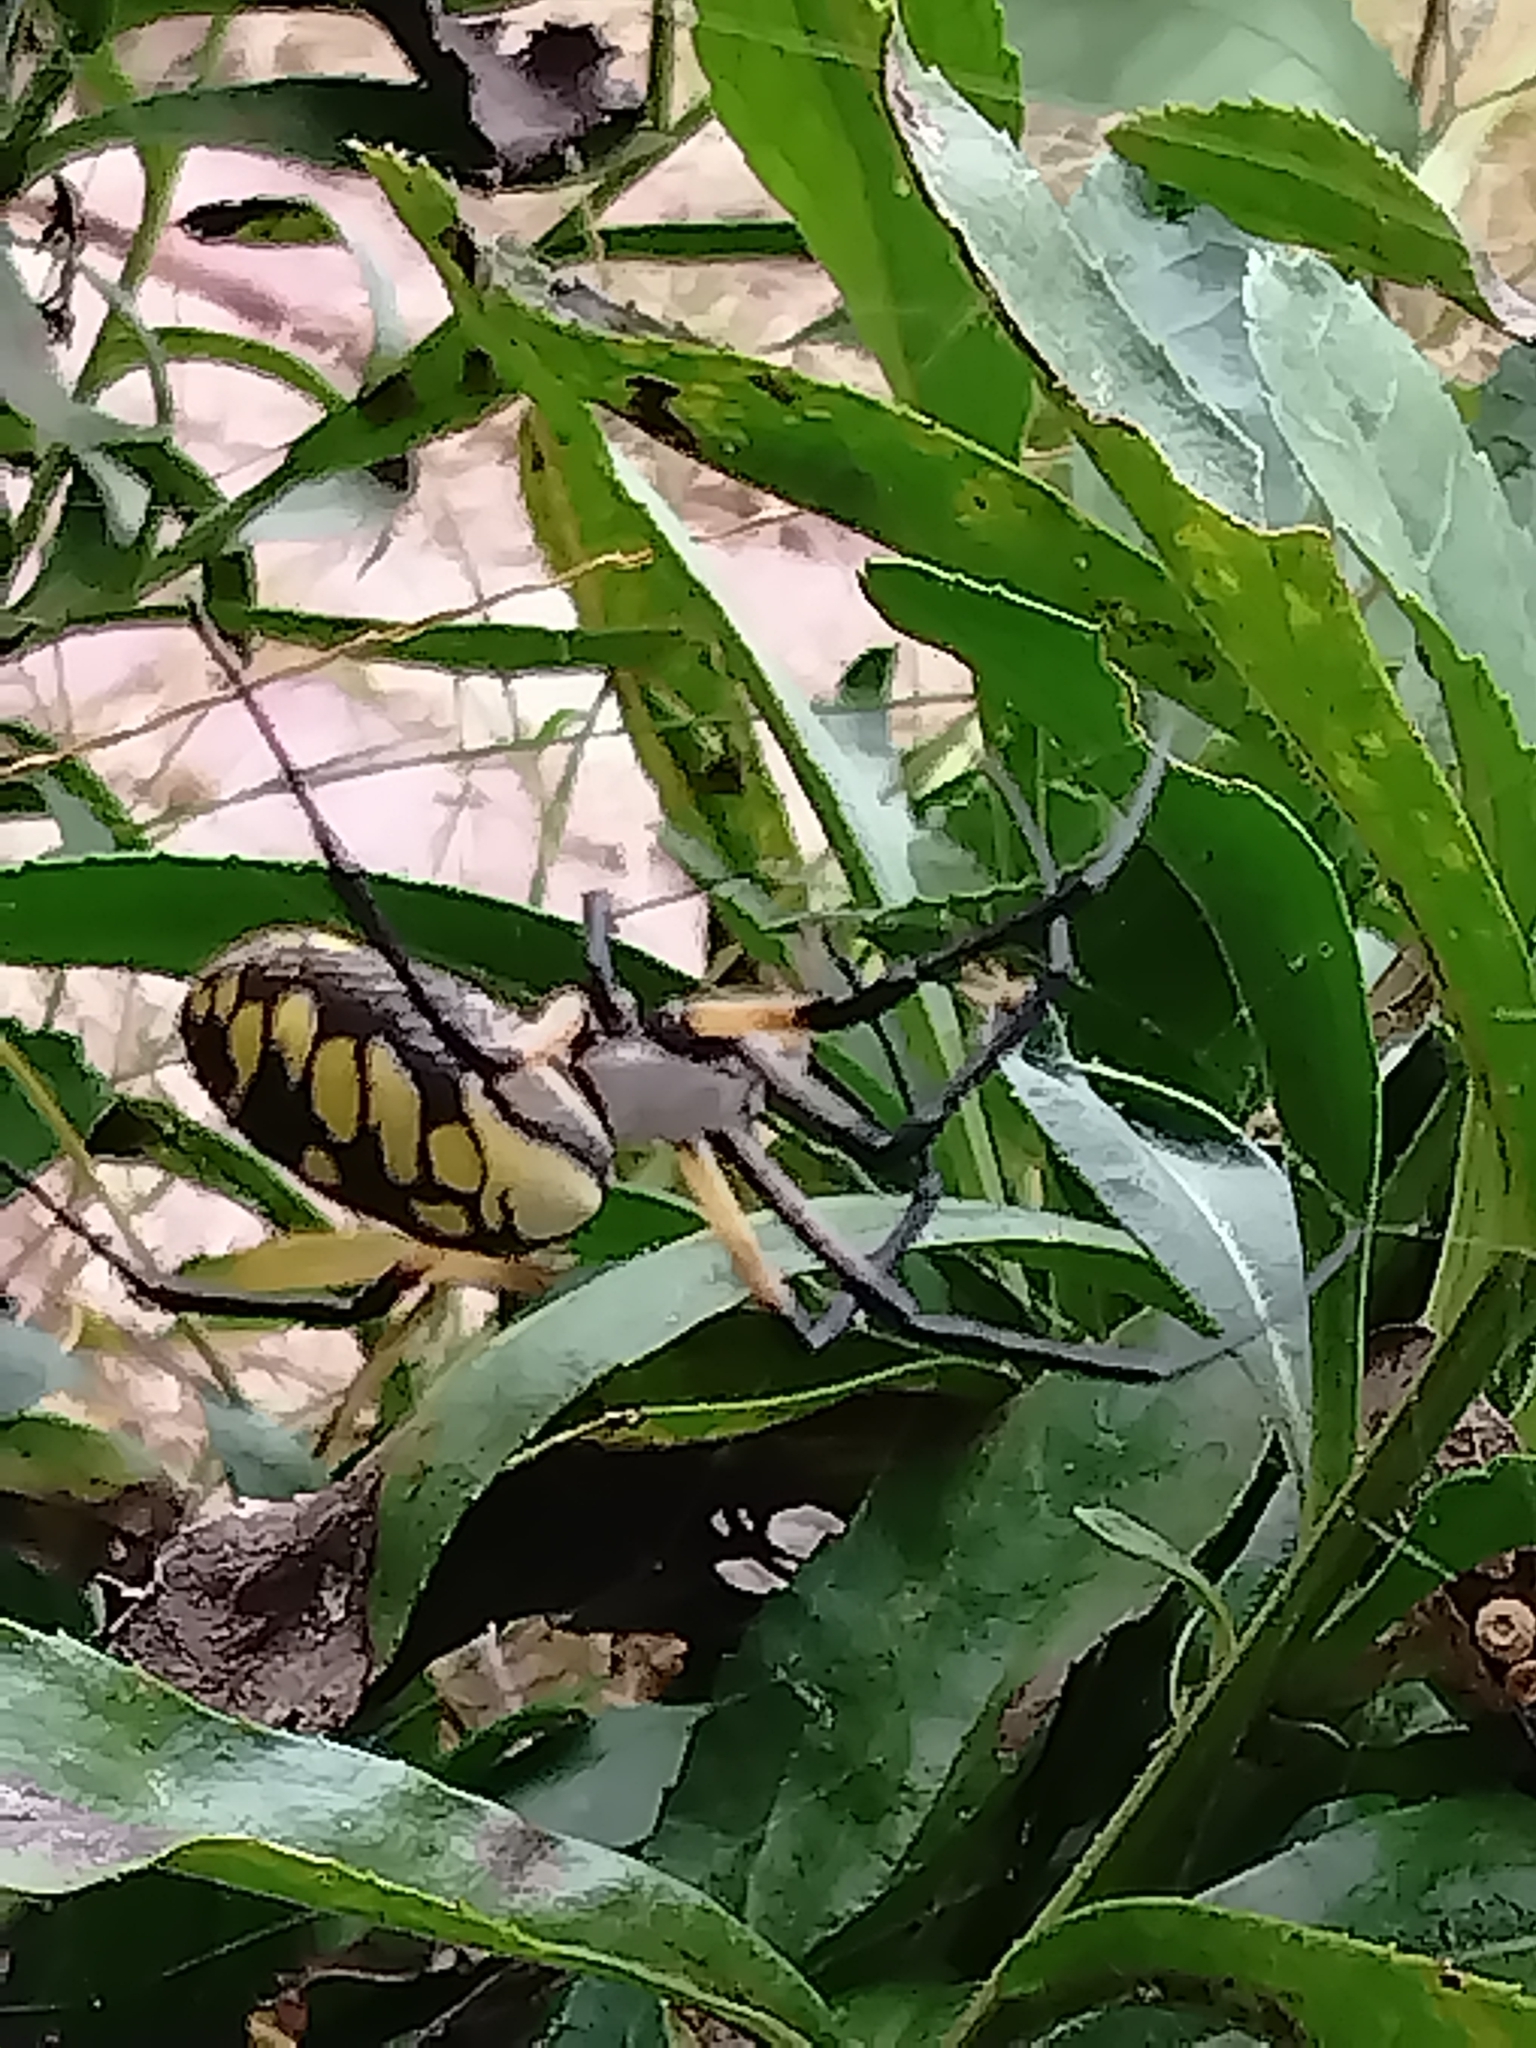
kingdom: Animalia
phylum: Arthropoda
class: Arachnida
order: Araneae
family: Araneidae
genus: Argiope
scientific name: Argiope aurantia
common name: Orb weavers
